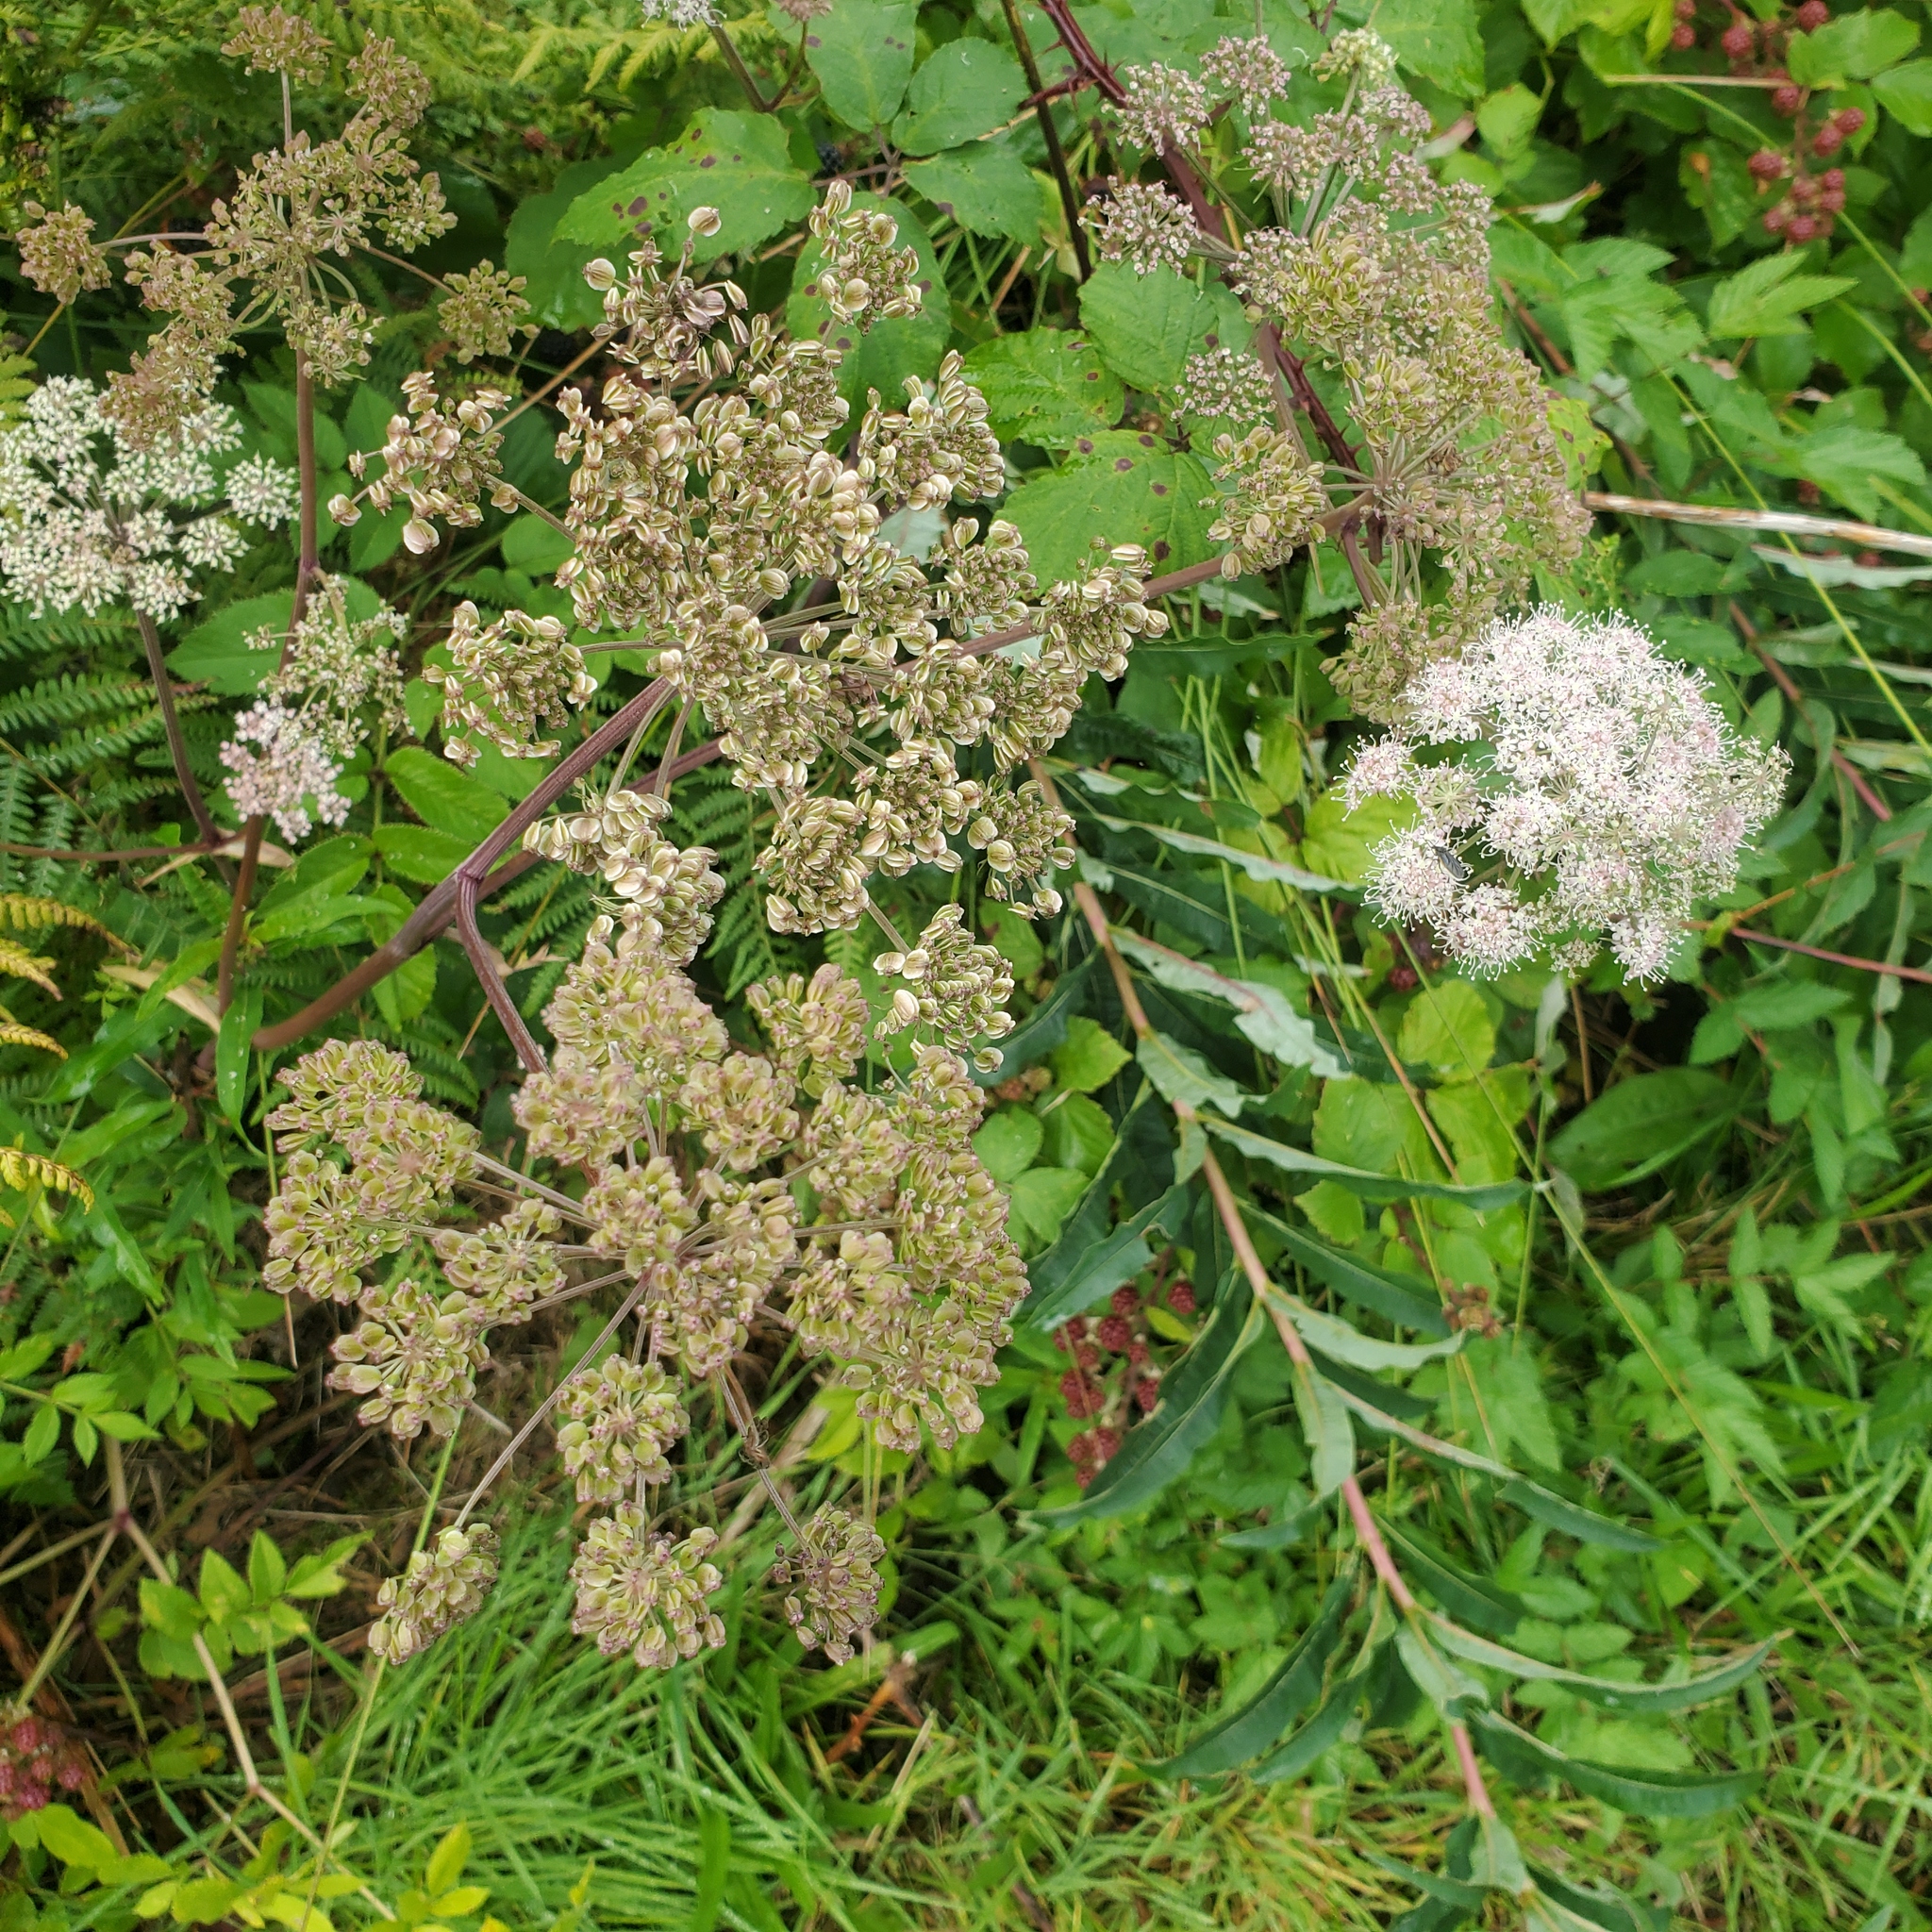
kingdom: Plantae
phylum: Tracheophyta
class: Magnoliopsida
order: Apiales
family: Apiaceae
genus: Angelica
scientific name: Angelica sylvestris
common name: Wild angelica
